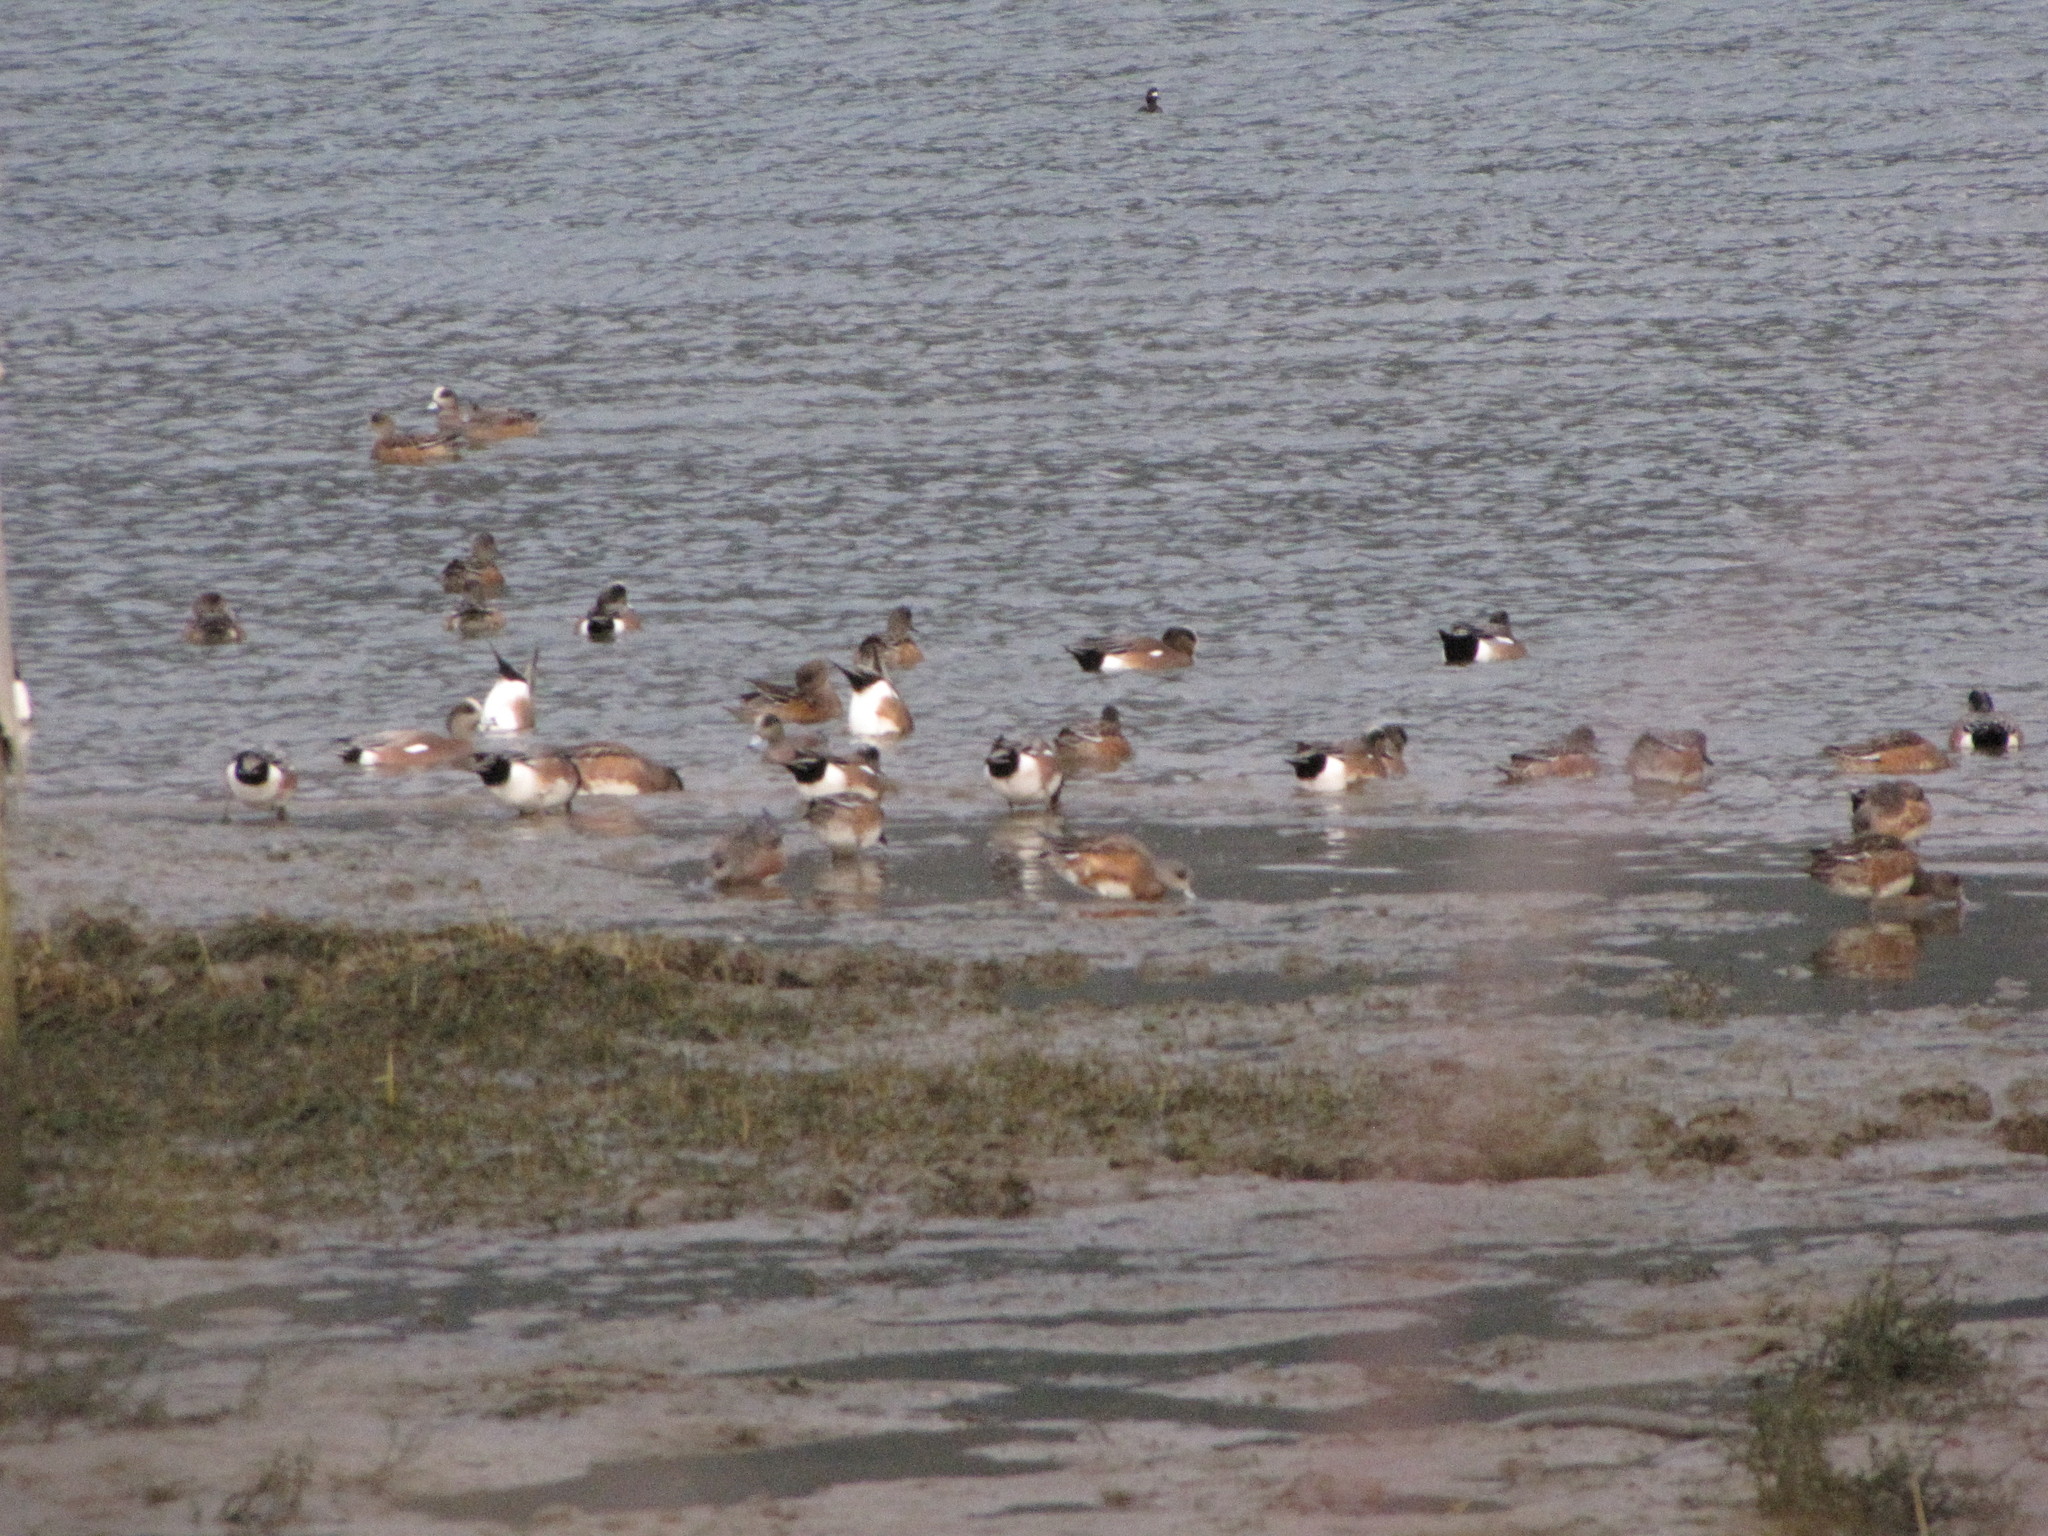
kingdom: Animalia
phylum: Chordata
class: Aves
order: Anseriformes
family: Anatidae
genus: Mareca
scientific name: Mareca americana
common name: American wigeon
